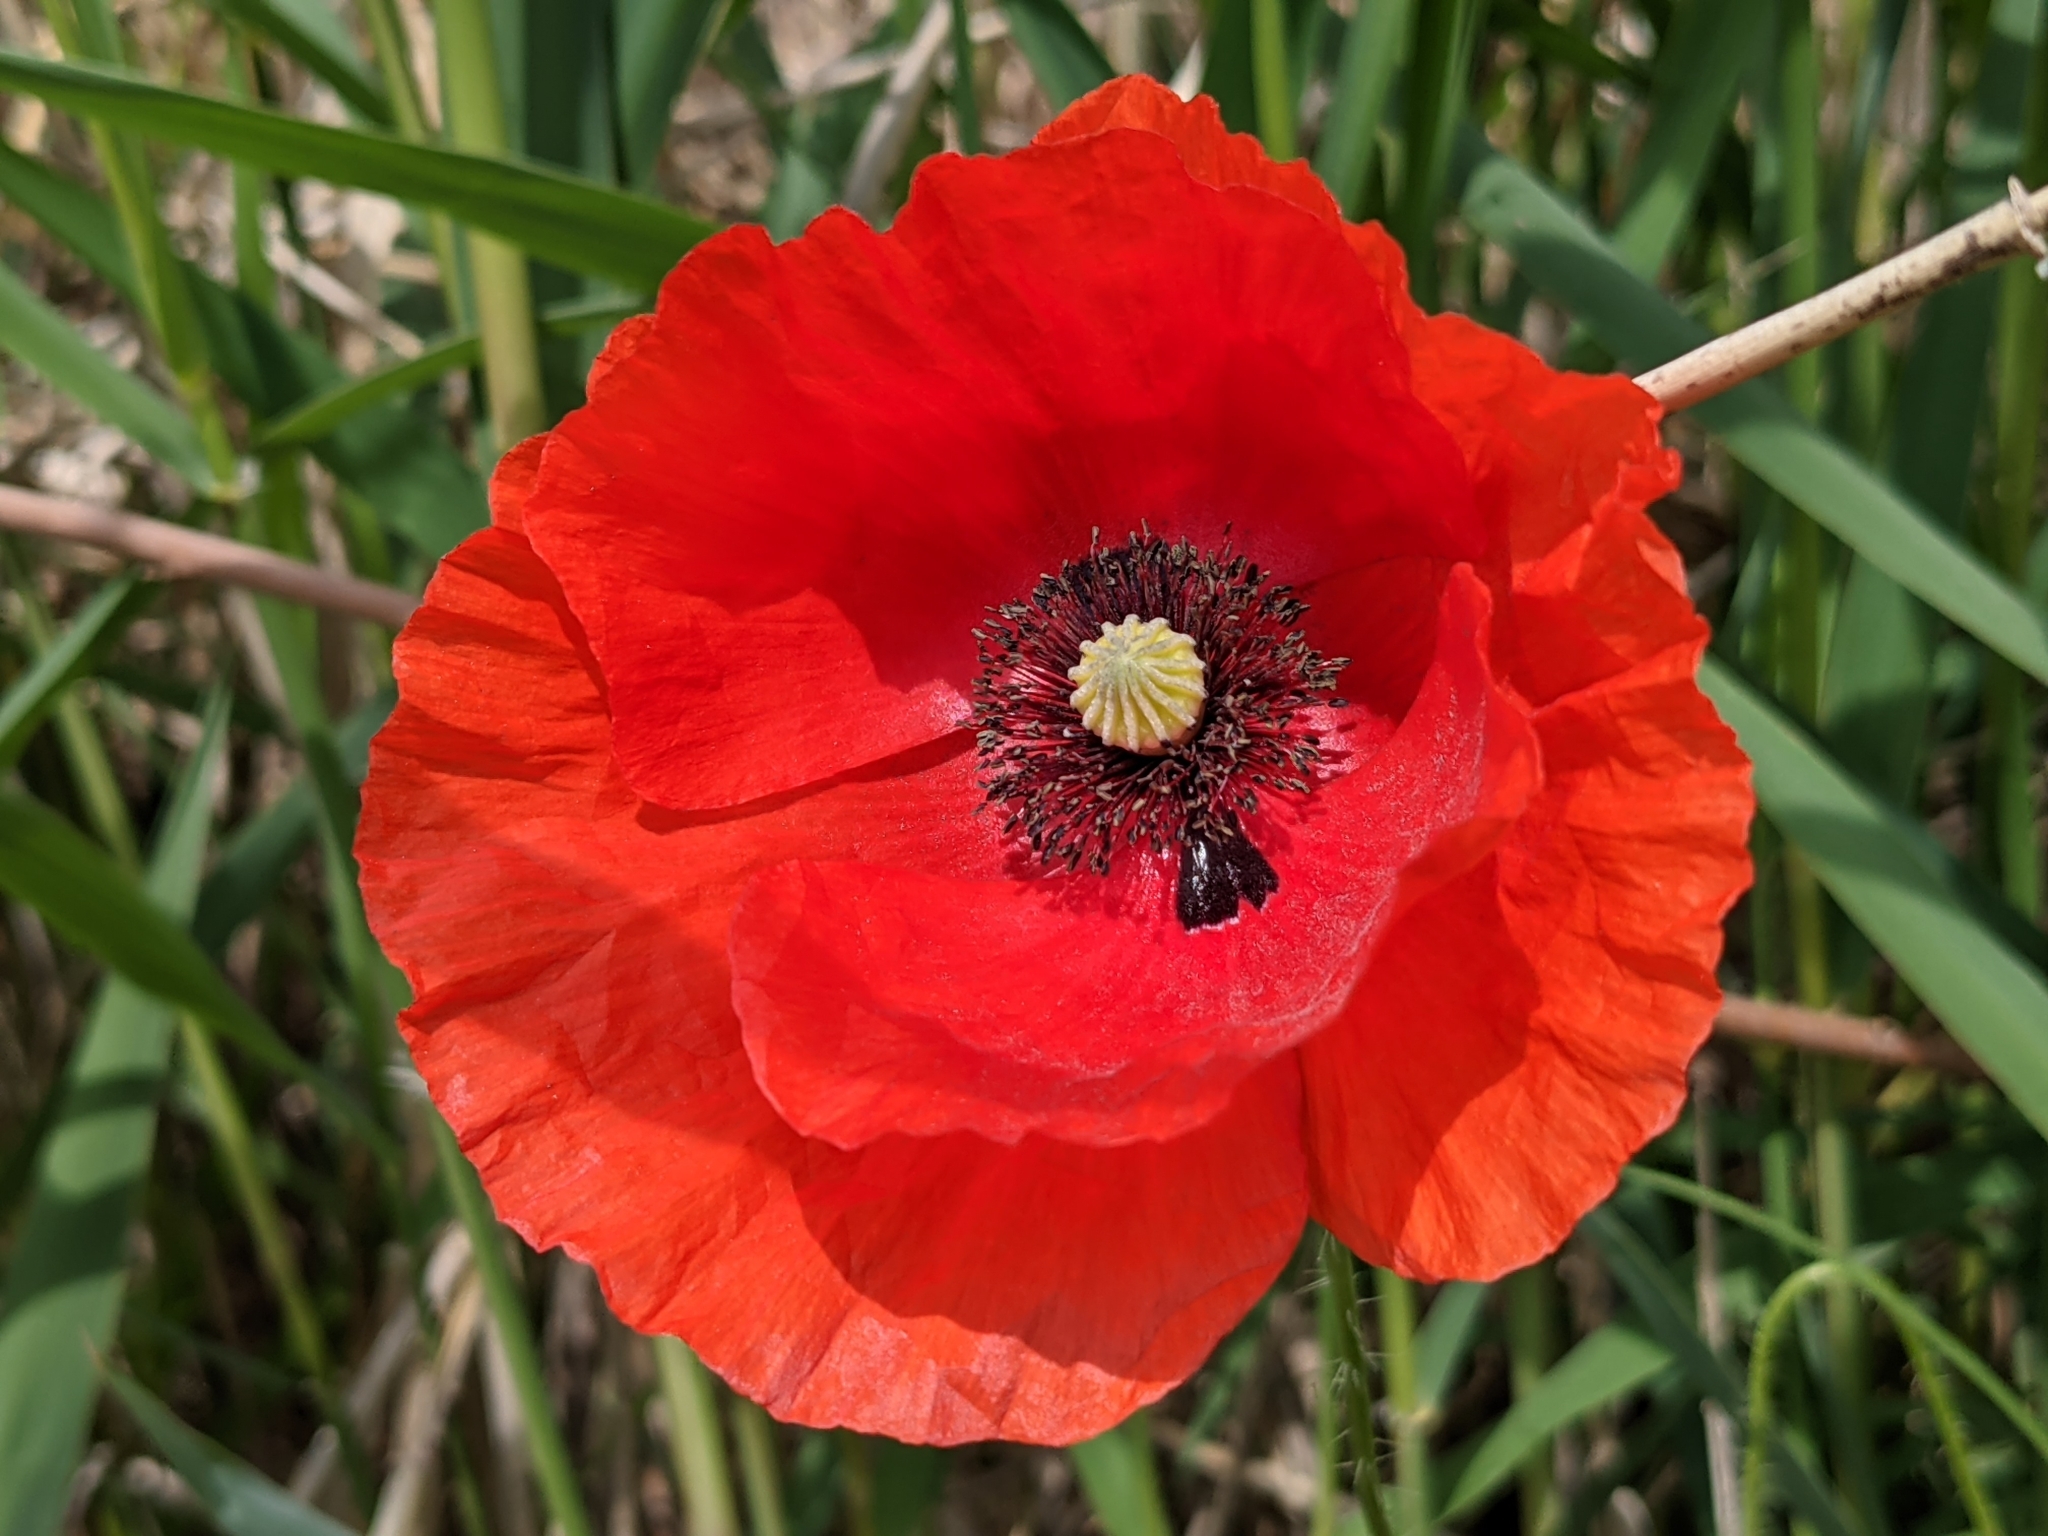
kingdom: Plantae
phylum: Tracheophyta
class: Magnoliopsida
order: Ranunculales
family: Papaveraceae
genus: Papaver
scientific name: Papaver rhoeas
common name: Corn poppy
